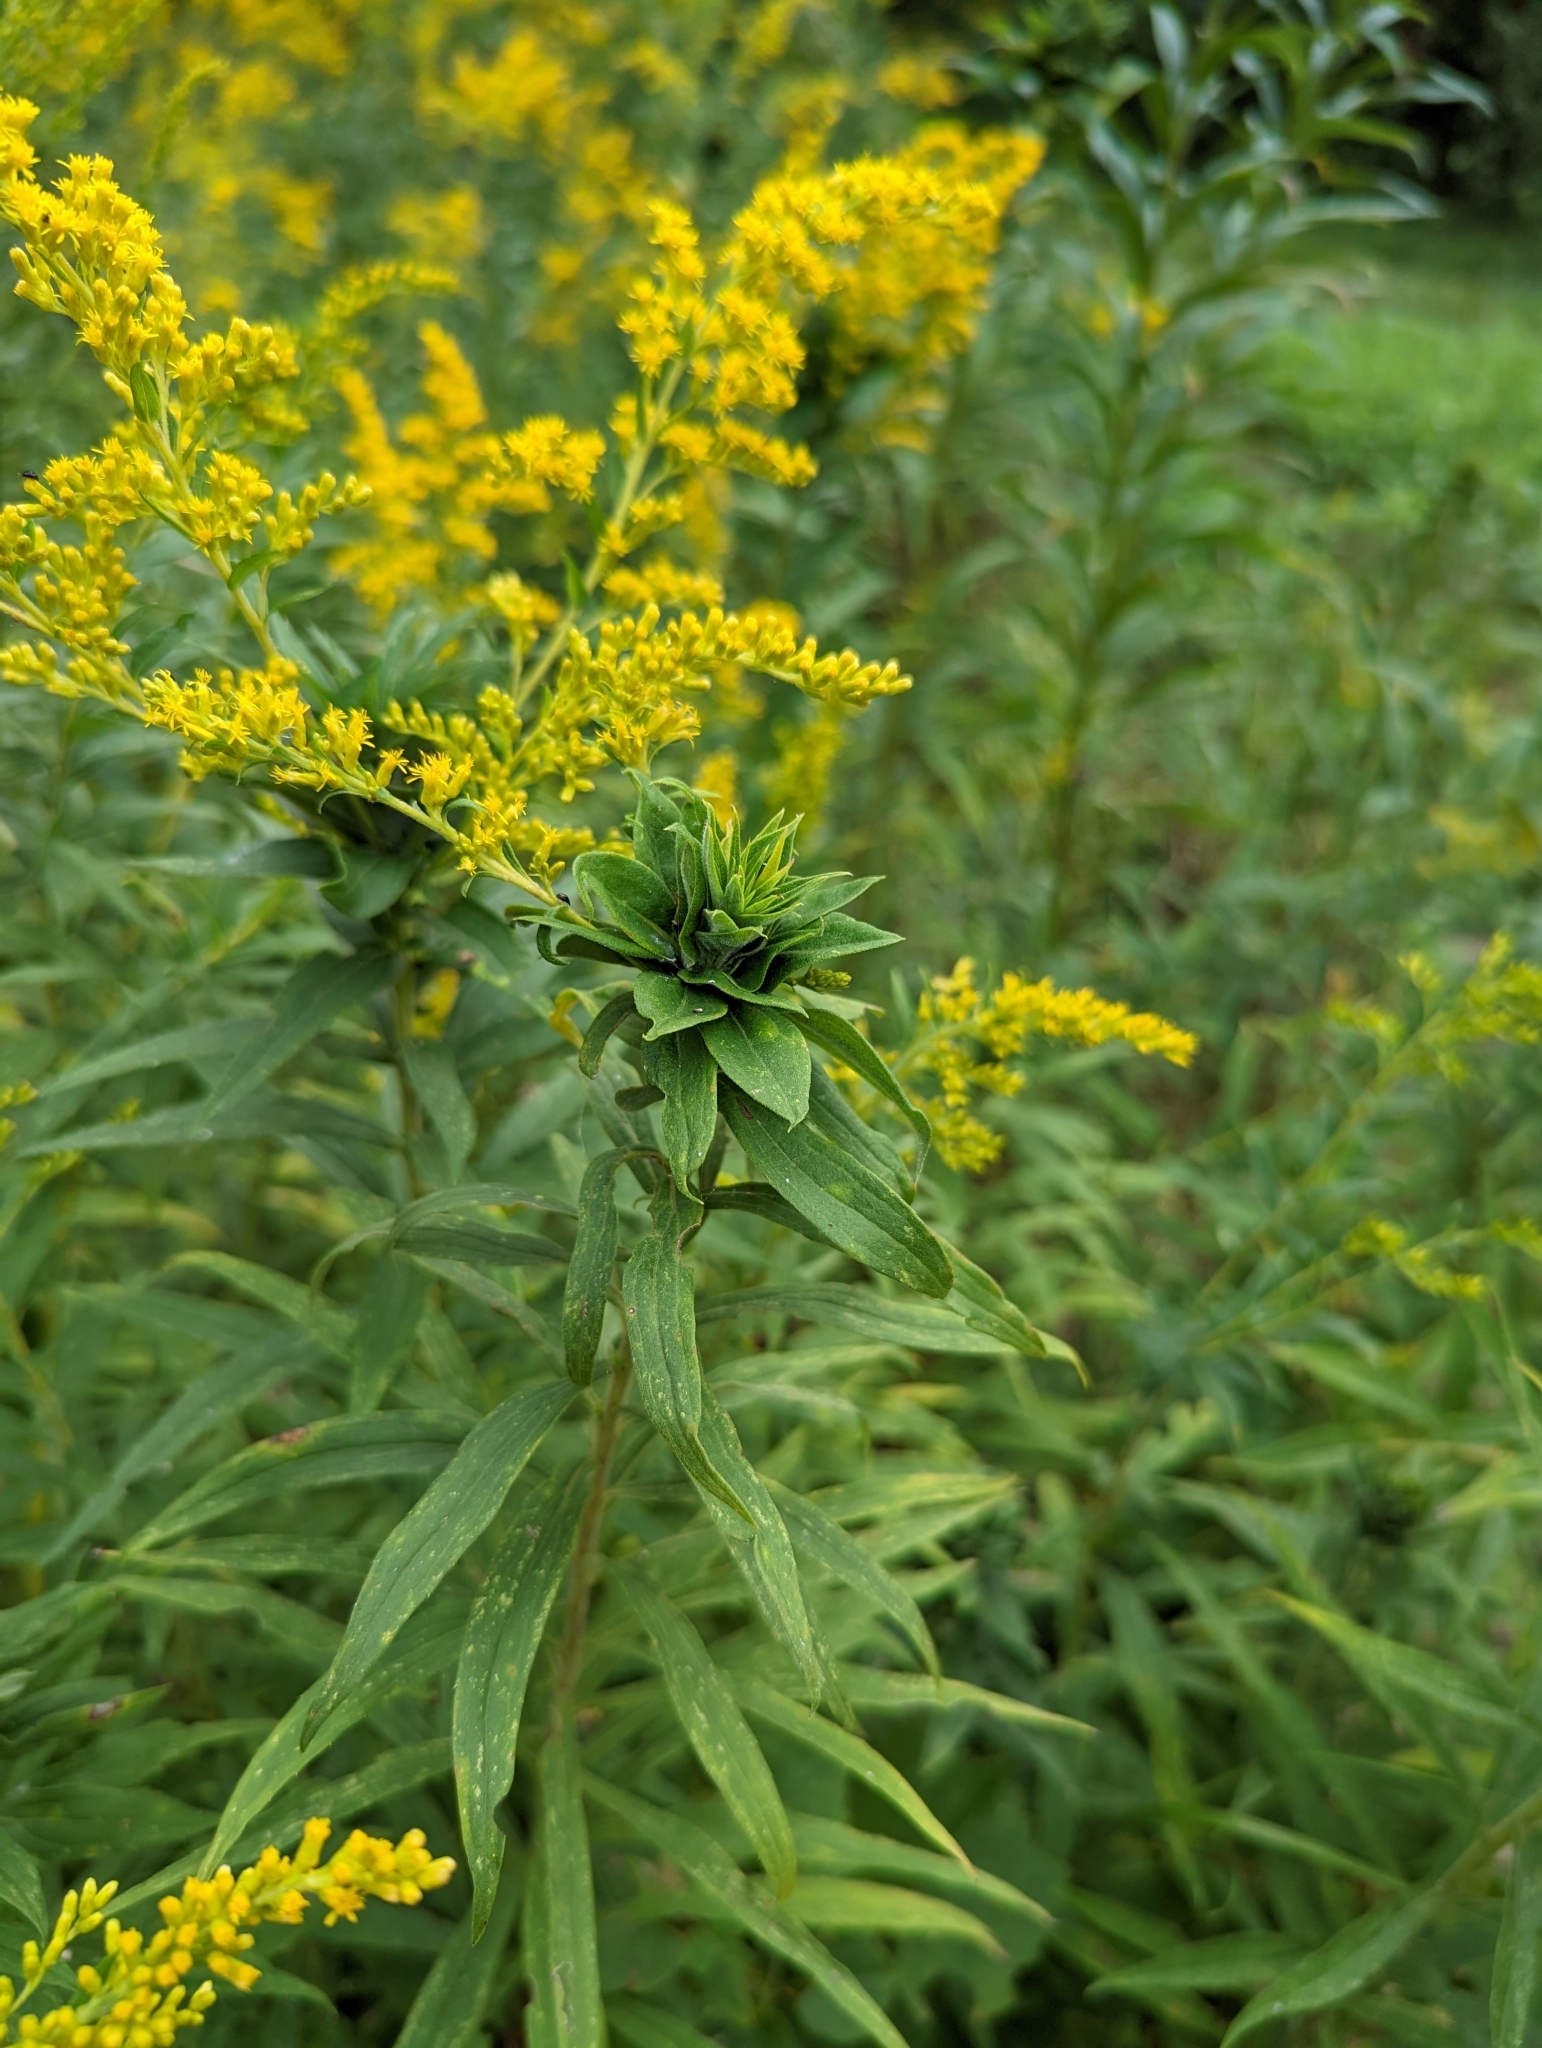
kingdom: Animalia
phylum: Arthropoda
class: Insecta
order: Diptera
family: Cecidomyiidae
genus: Rhopalomyia
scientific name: Rhopalomyia solidaginis
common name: Goldenrod bunch gall midge
